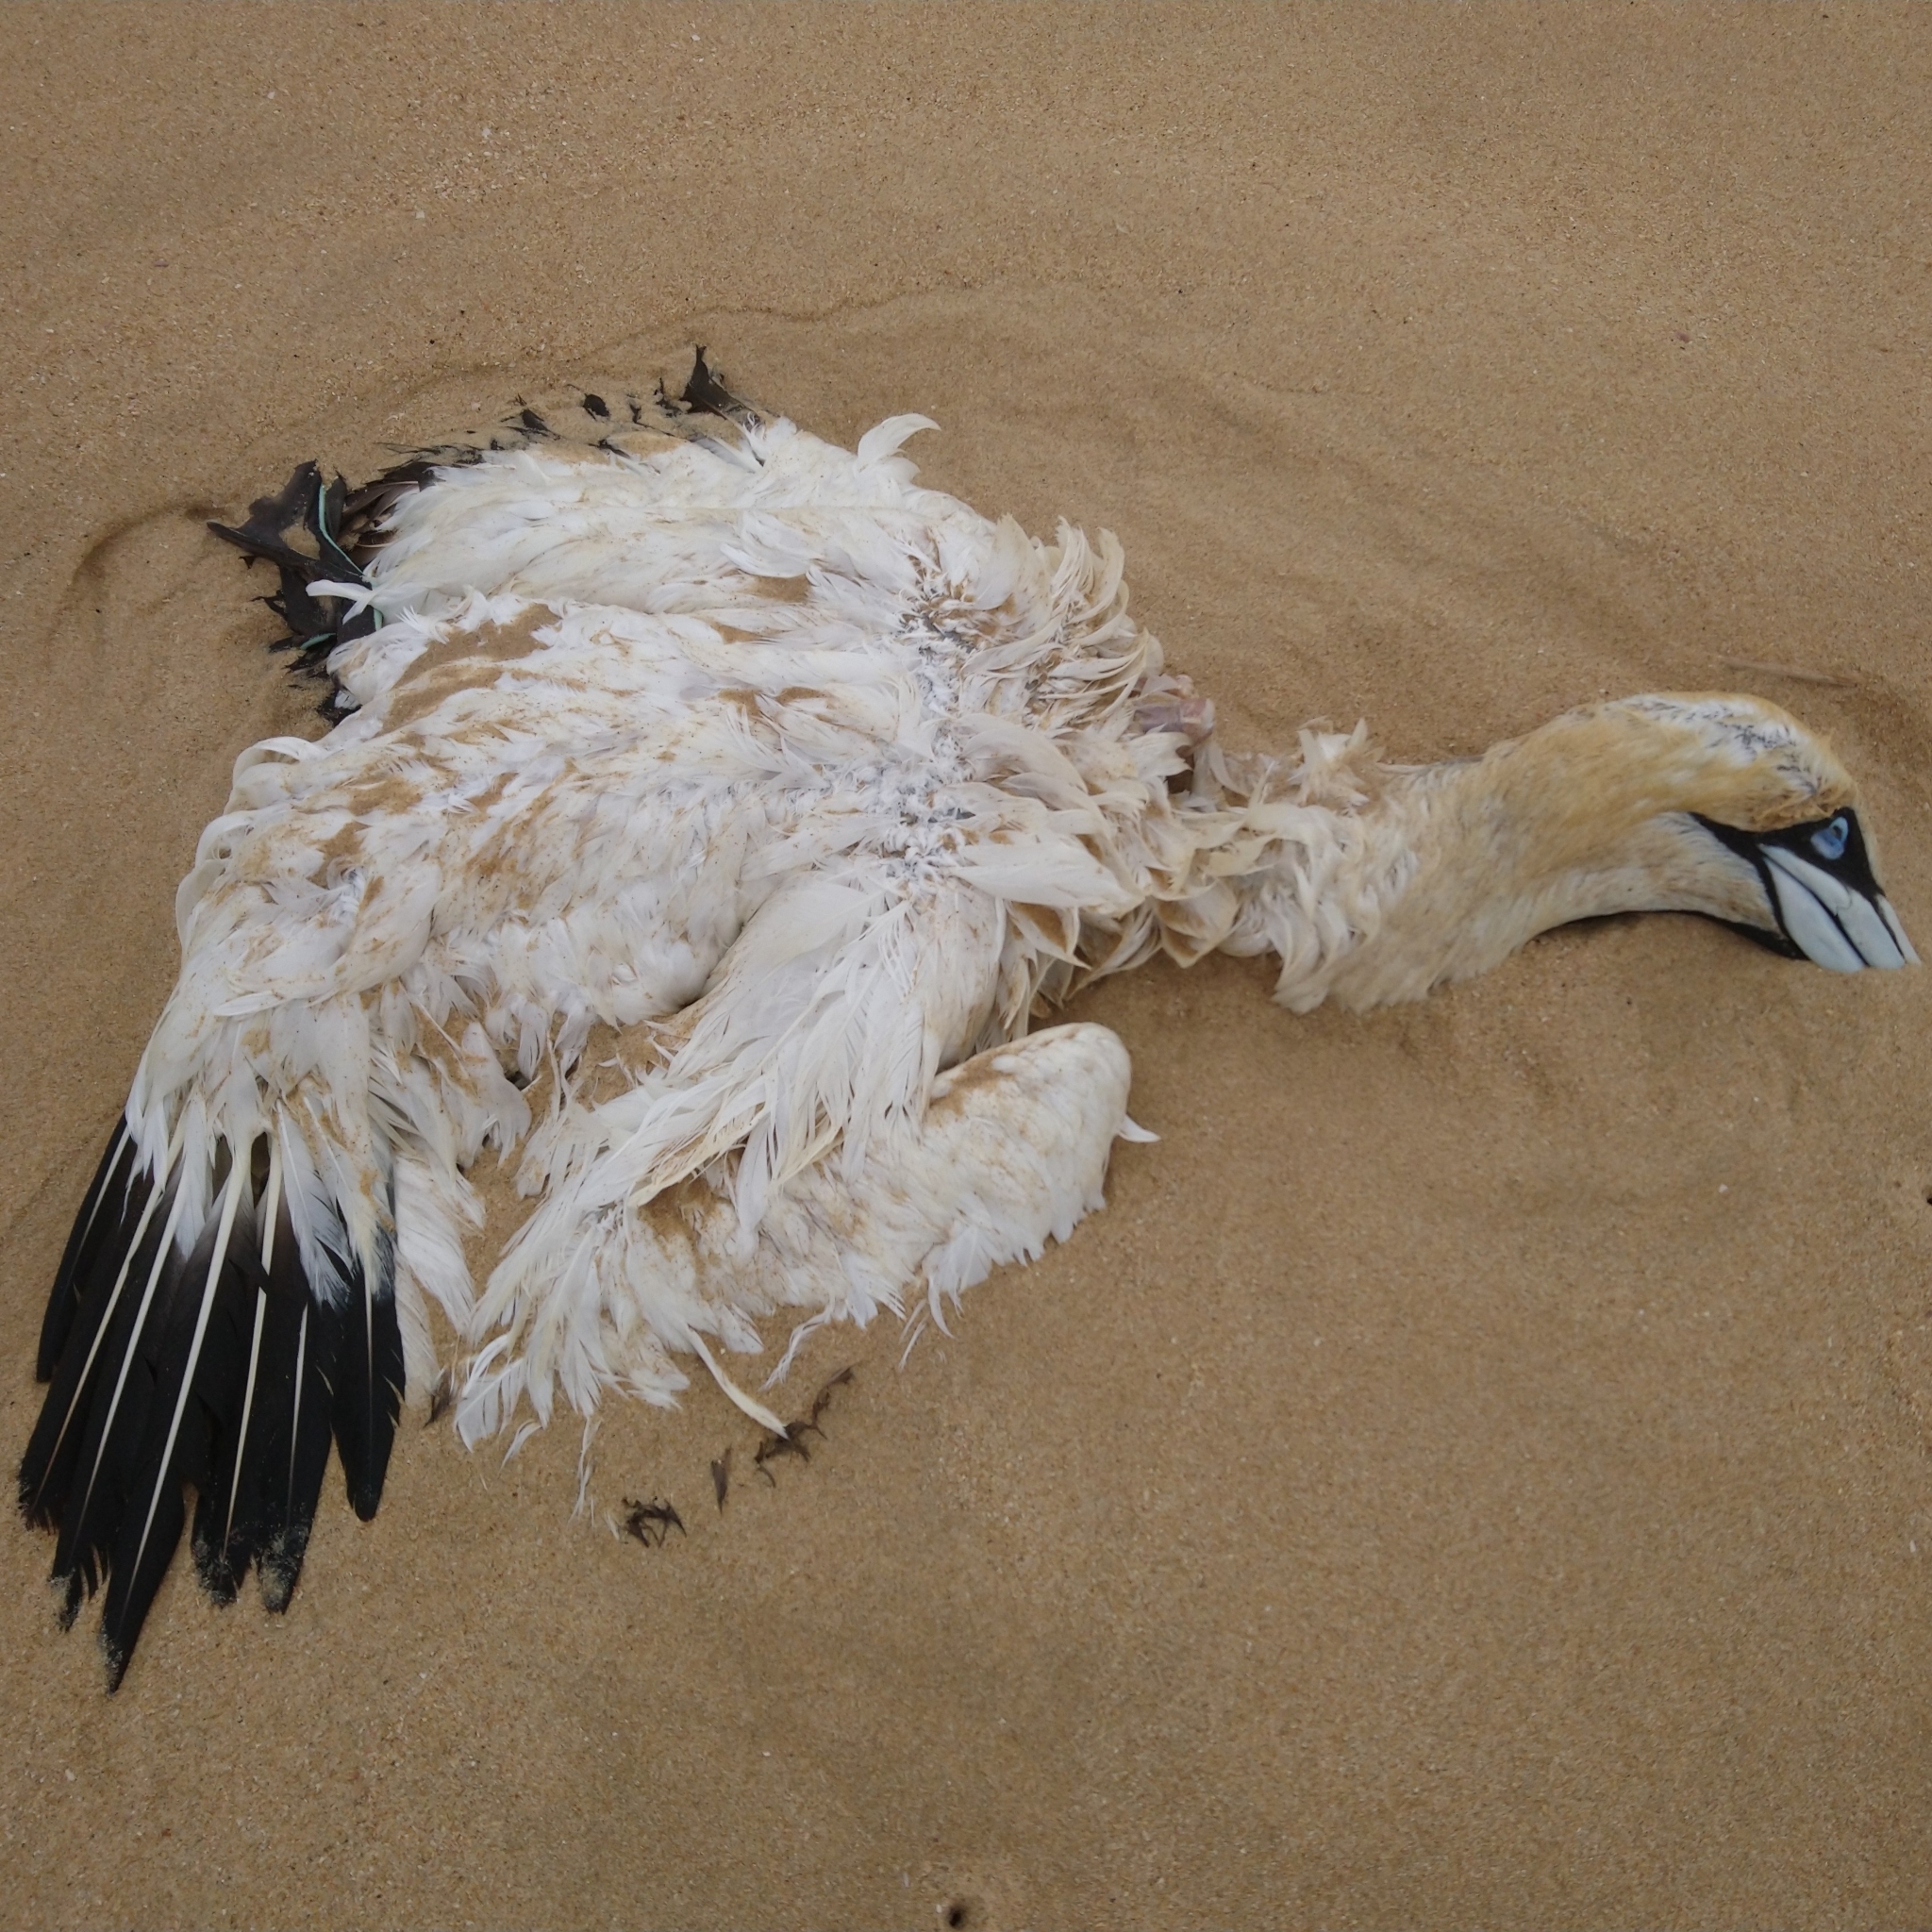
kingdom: Animalia
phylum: Chordata
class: Aves
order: Suliformes
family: Sulidae
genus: Morus
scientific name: Morus capensis
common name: Cape gannet
